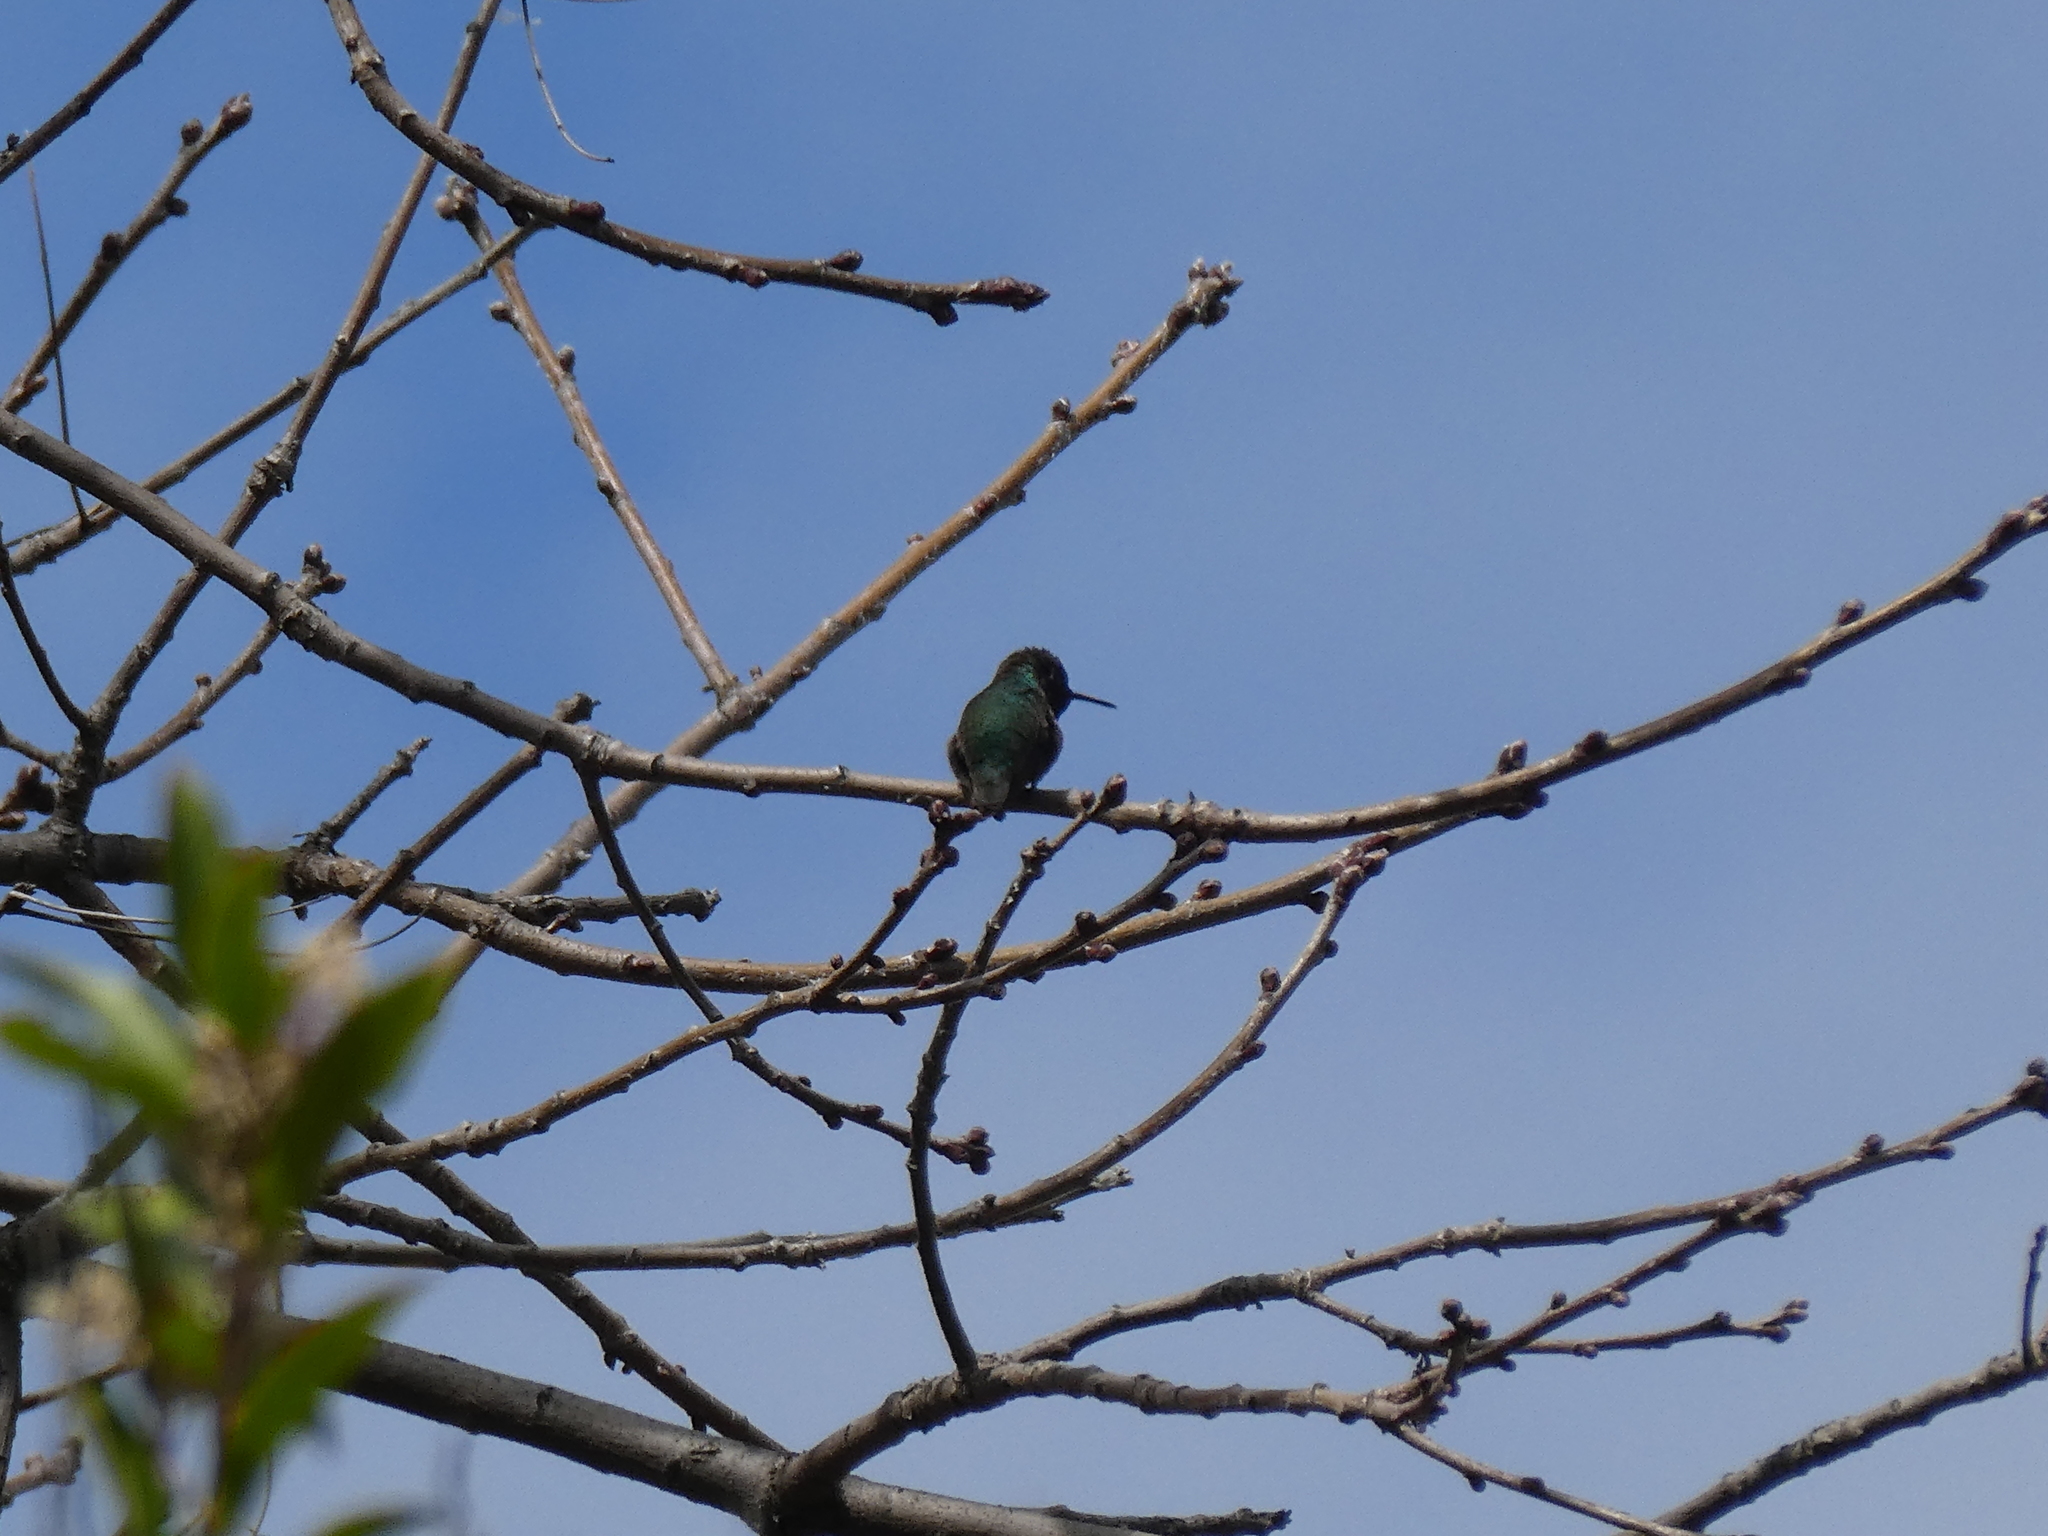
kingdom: Animalia
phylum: Chordata
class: Aves
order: Apodiformes
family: Trochilidae
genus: Calypte
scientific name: Calypte anna
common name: Anna's hummingbird
